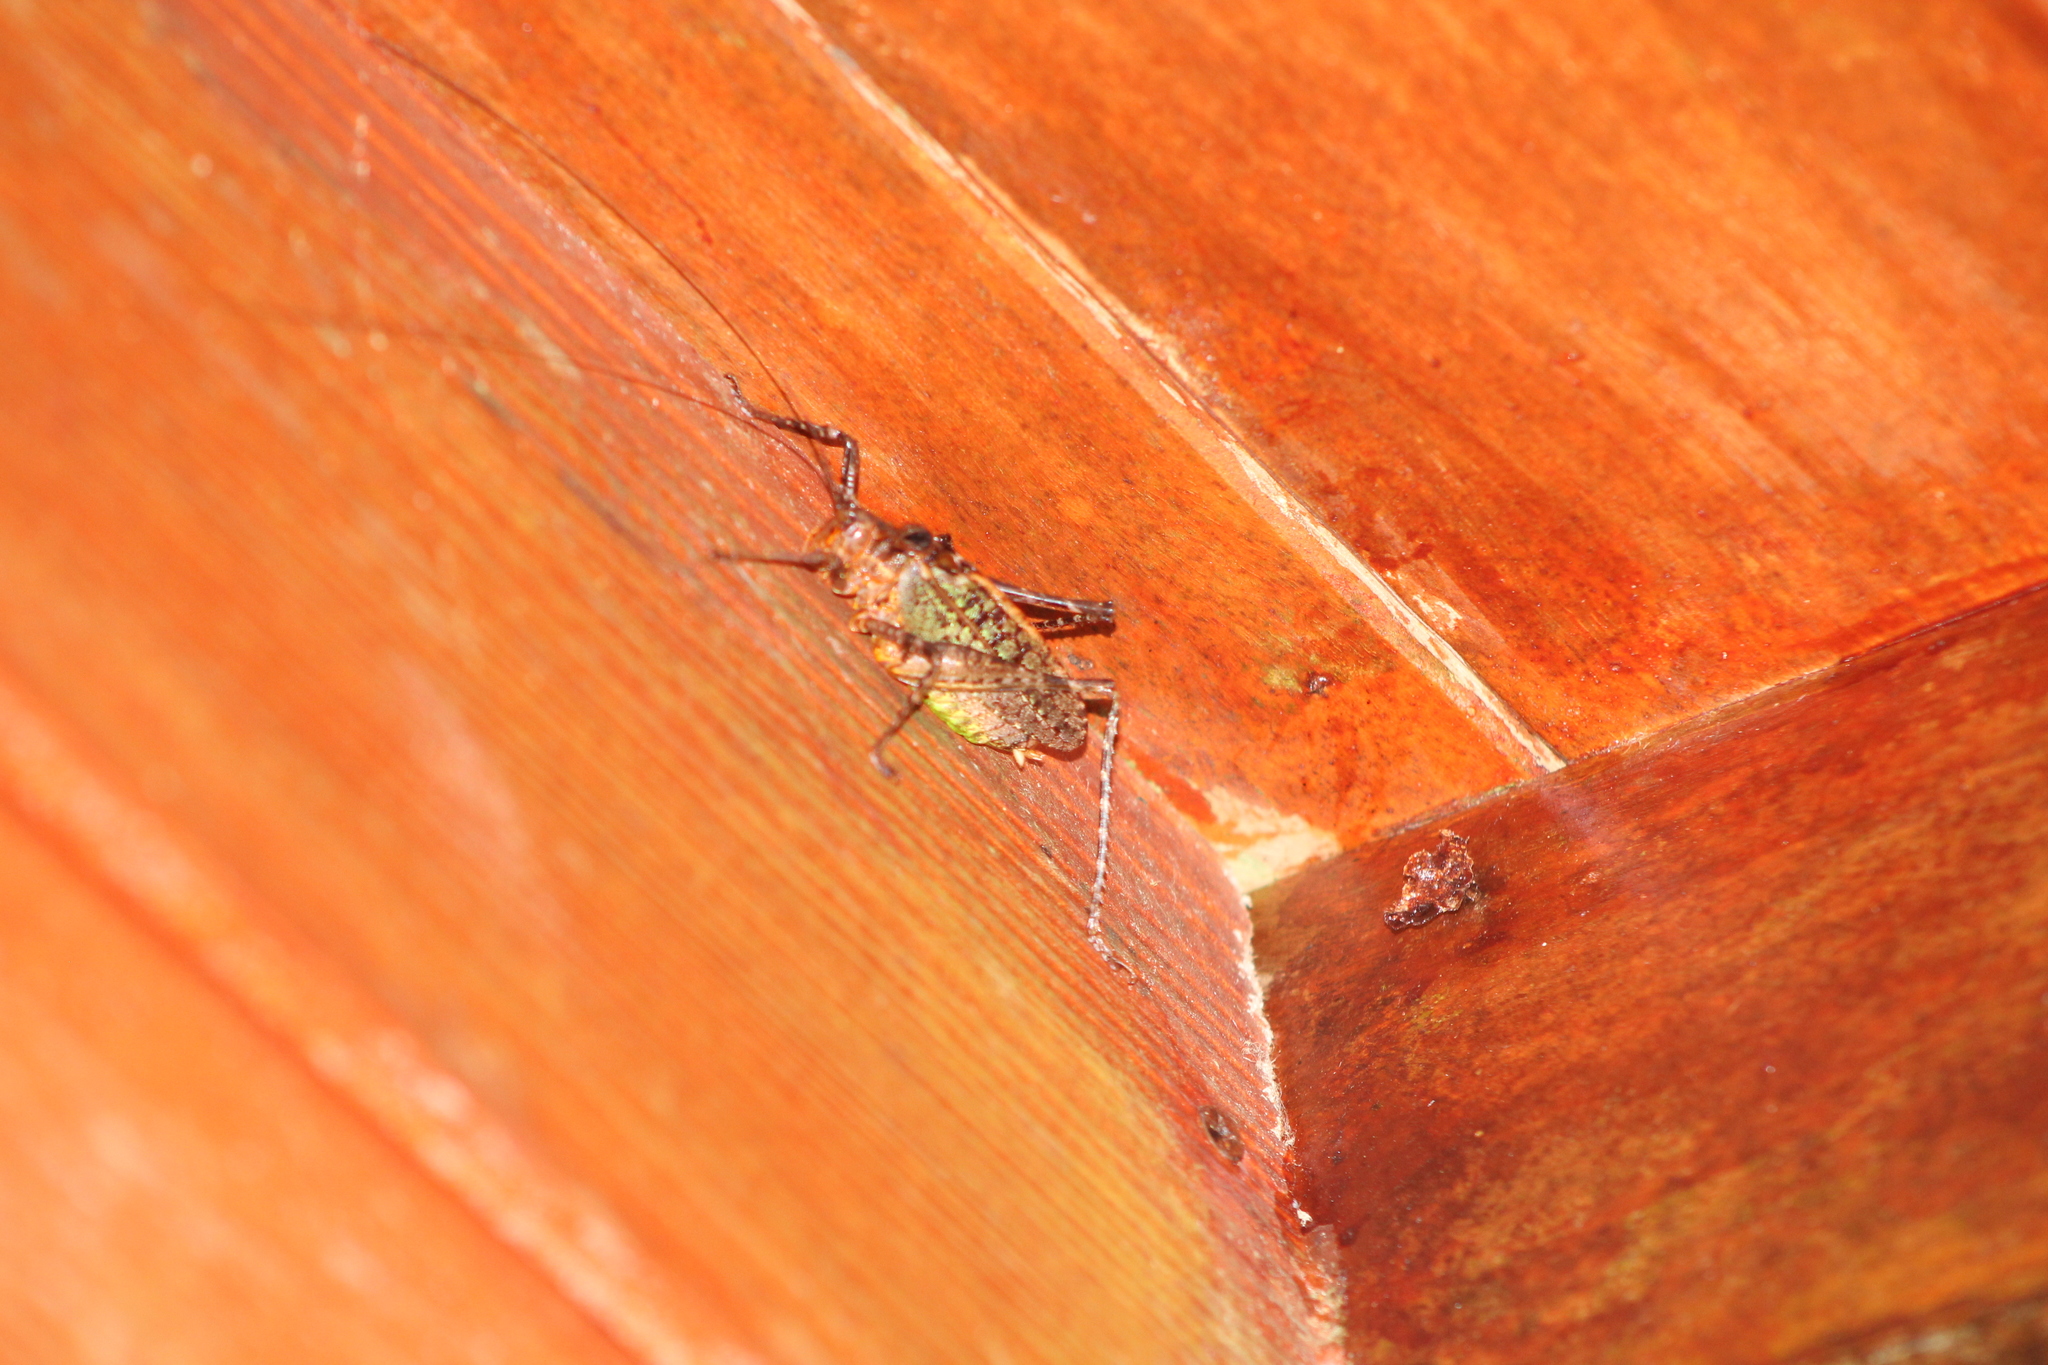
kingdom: Animalia
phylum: Arthropoda
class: Insecta
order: Orthoptera
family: Tettigoniidae
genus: Clepsydronotus
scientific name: Clepsydronotus deciduus
